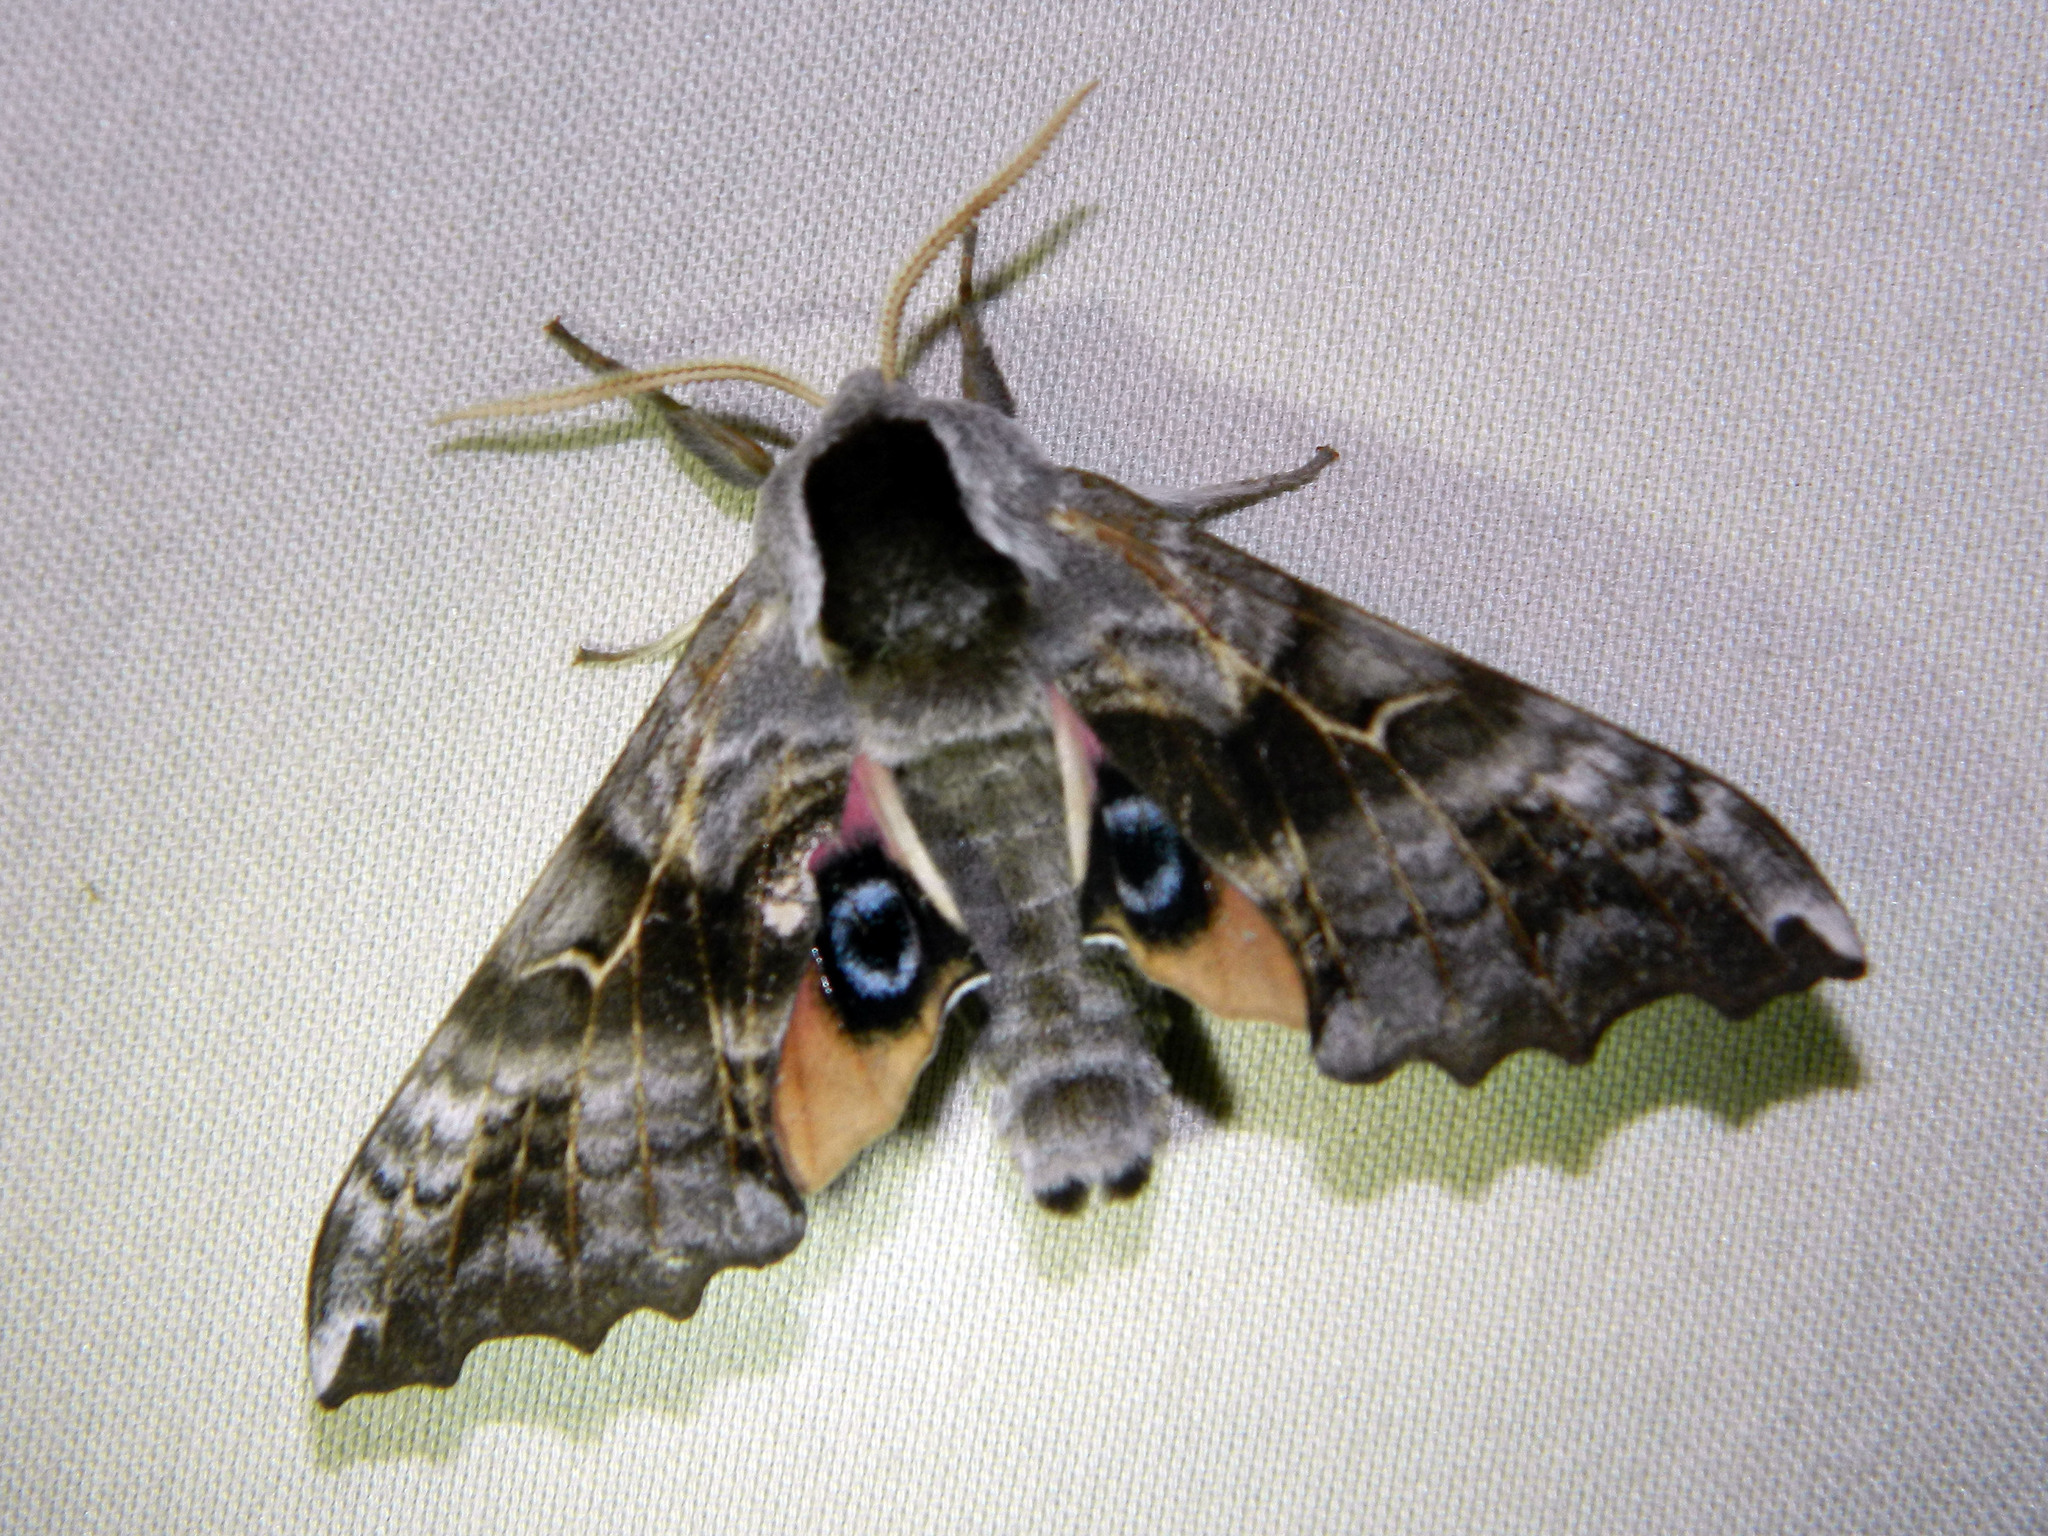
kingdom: Animalia
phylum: Arthropoda
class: Insecta
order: Lepidoptera
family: Sphingidae
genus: Smerinthus
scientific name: Smerinthus cerisyi
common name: Cerisy's sphinx moth
